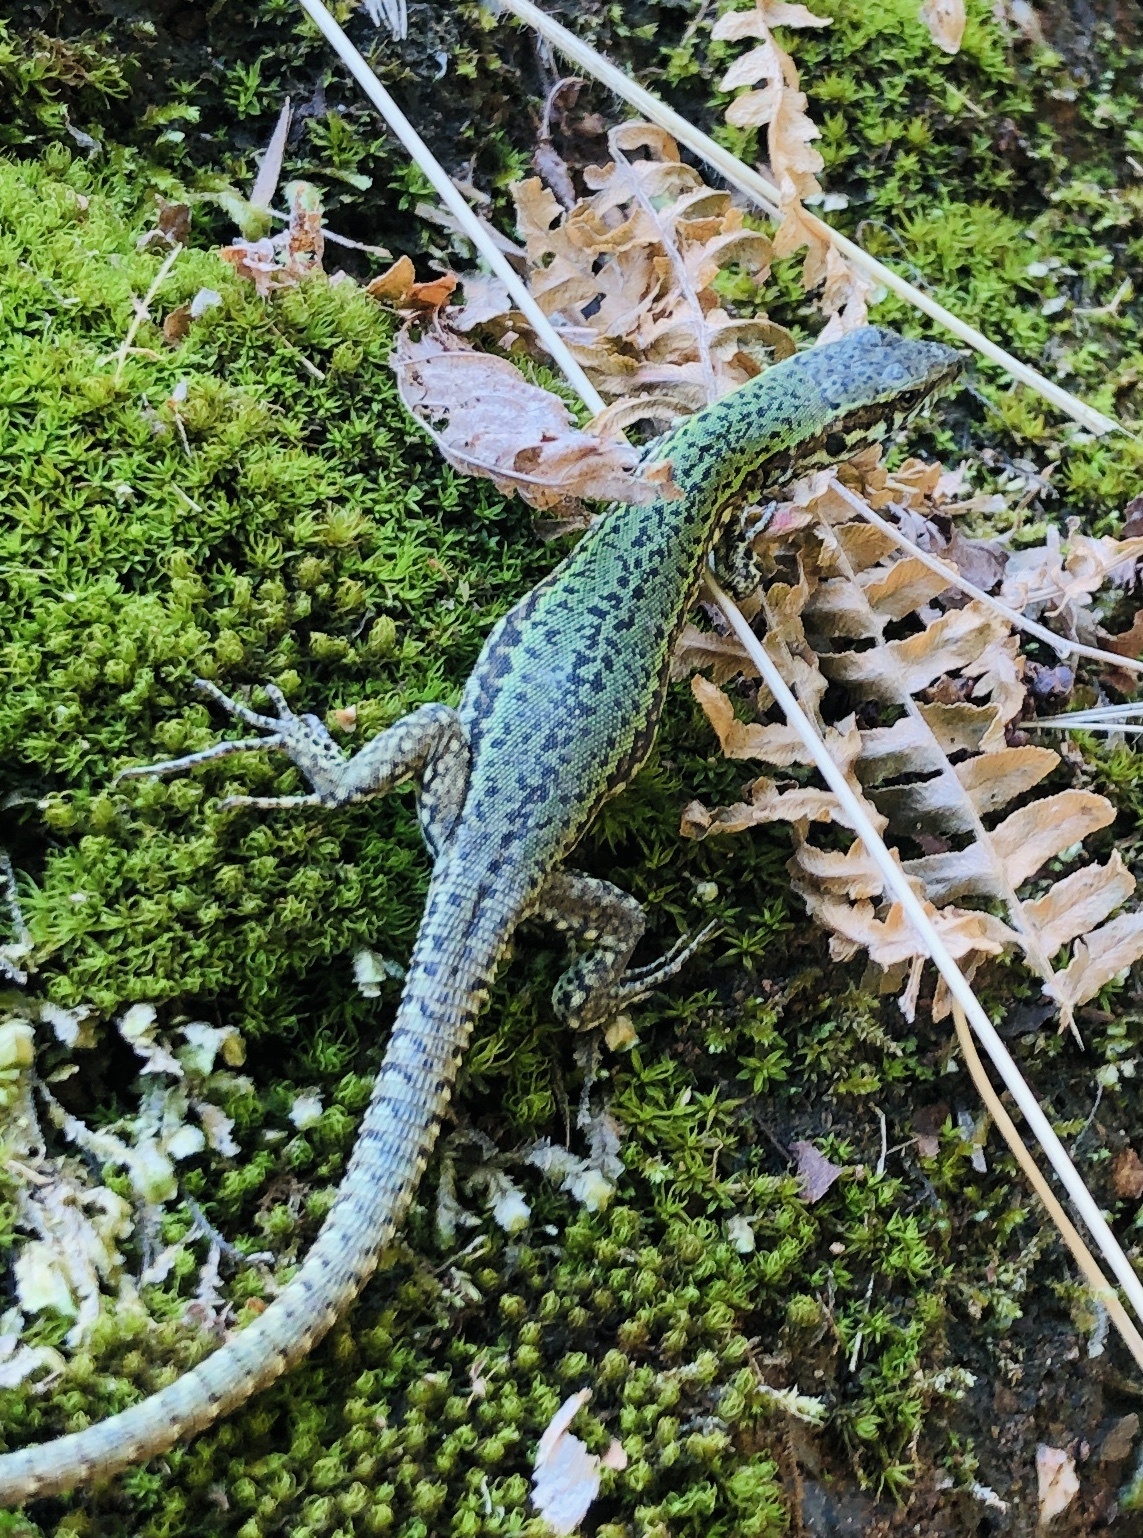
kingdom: Animalia
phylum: Chordata
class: Squamata
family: Lacertidae
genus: Podarcis
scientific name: Podarcis muralis
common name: Common wall lizard
